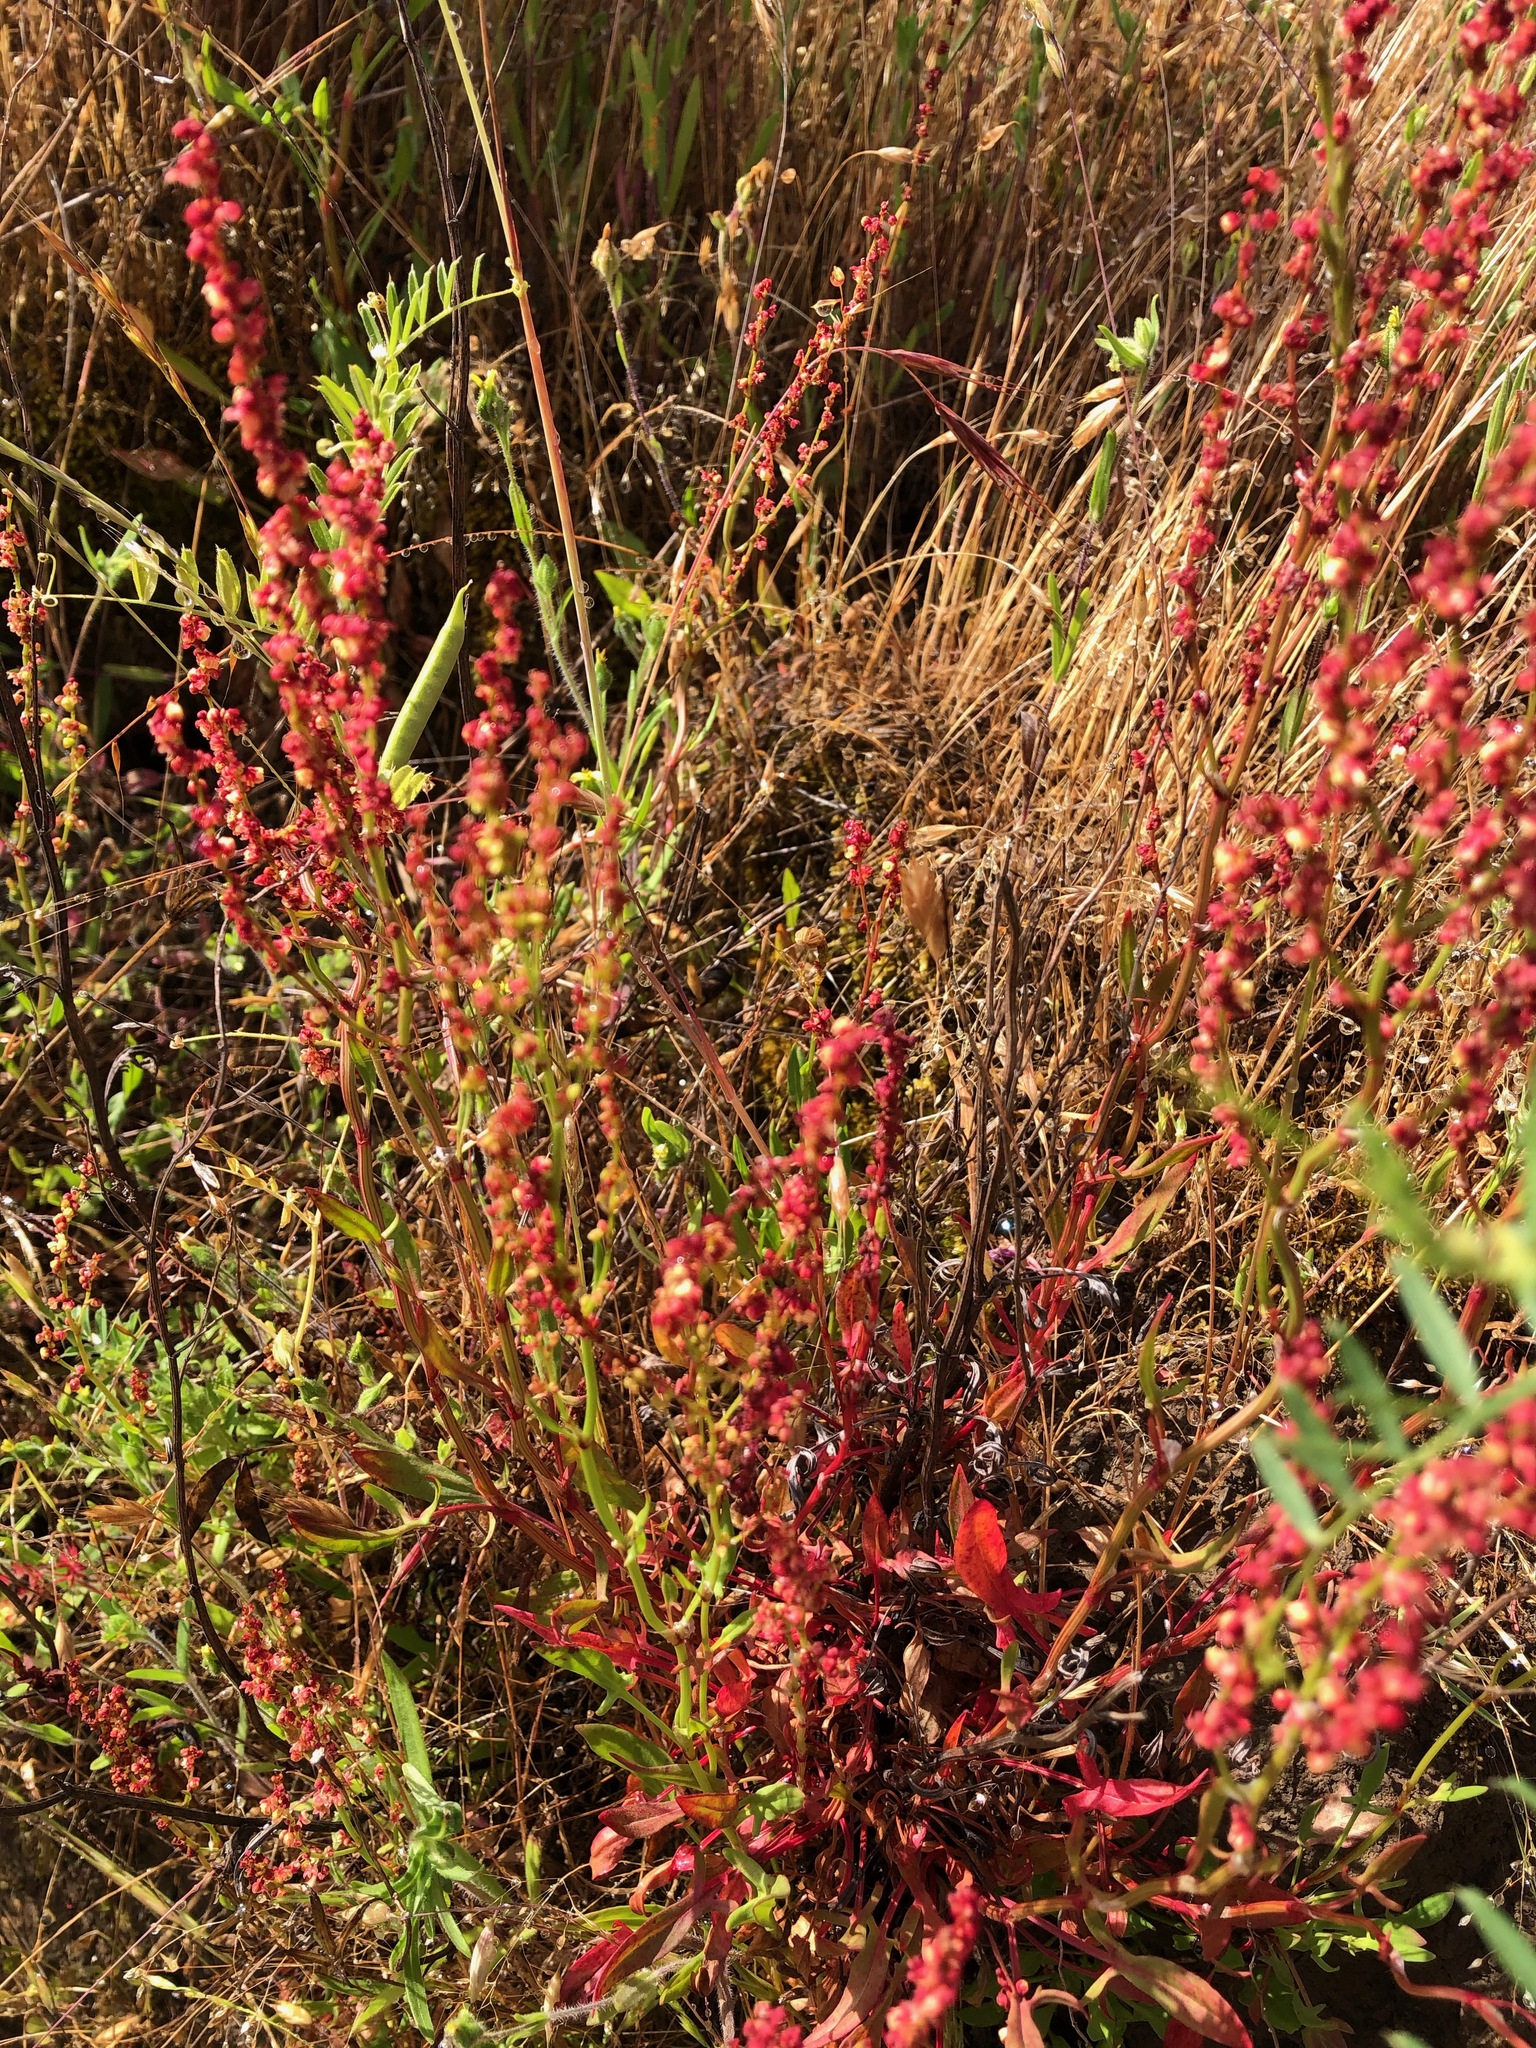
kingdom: Plantae
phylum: Tracheophyta
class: Magnoliopsida
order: Caryophyllales
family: Polygonaceae
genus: Rumex
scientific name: Rumex acetosella
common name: Common sheep sorrel
